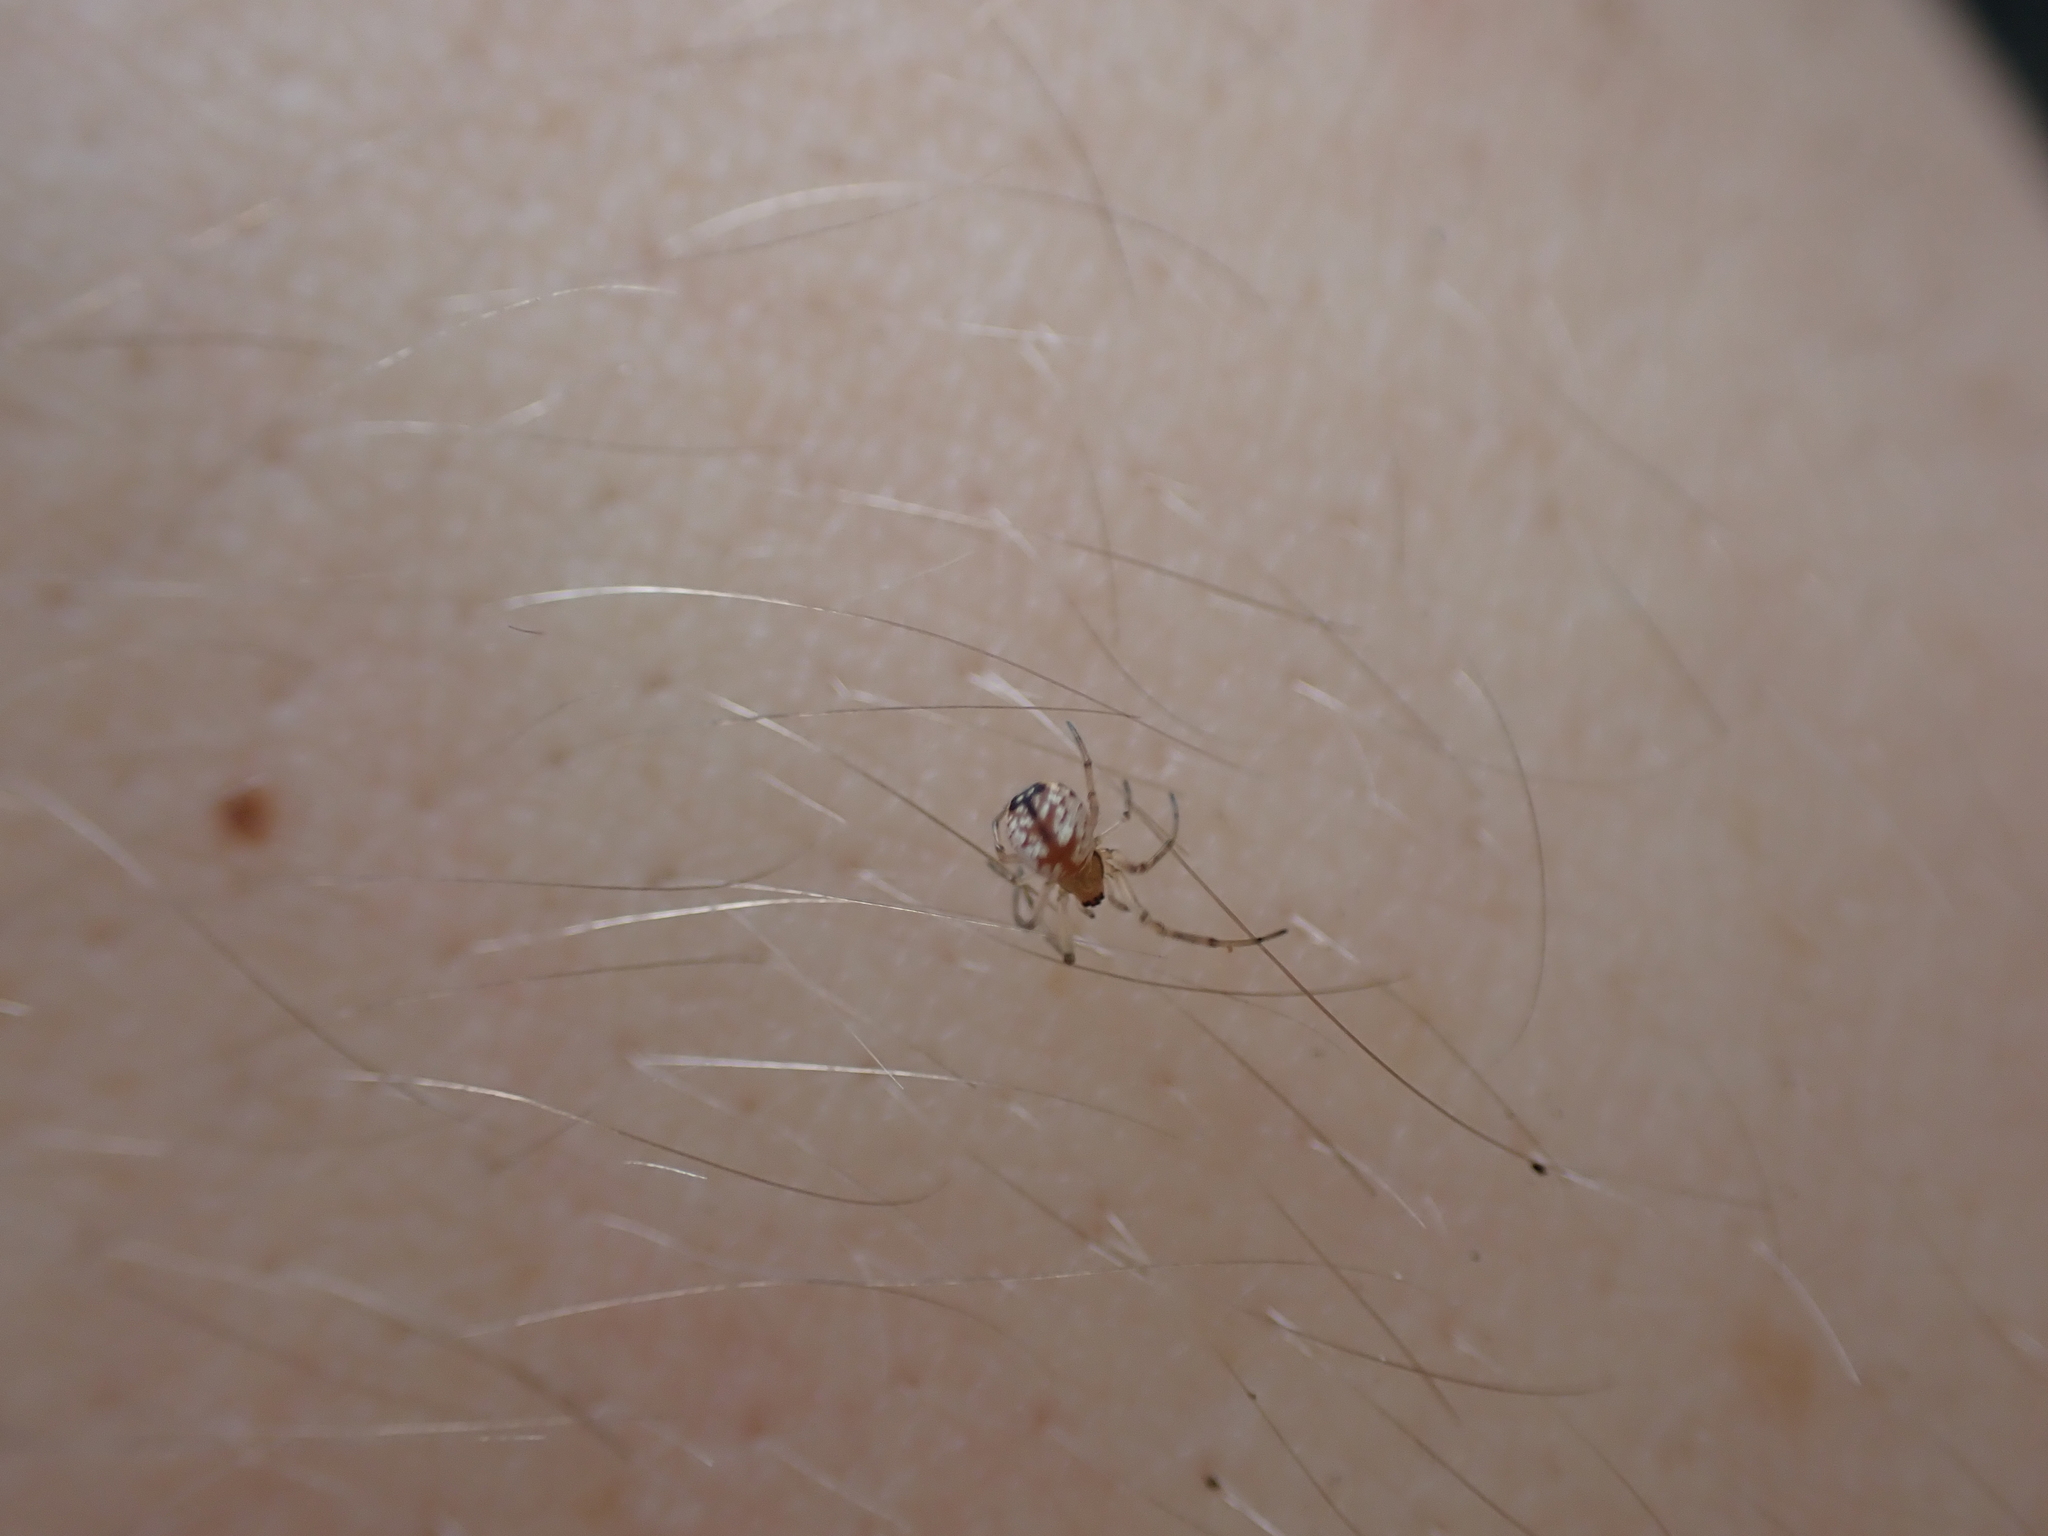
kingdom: Animalia
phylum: Arthropoda
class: Arachnida
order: Araneae
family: Tetragnathidae
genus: Leucauge
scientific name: Leucauge venusta
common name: Longjawed orb weavers
